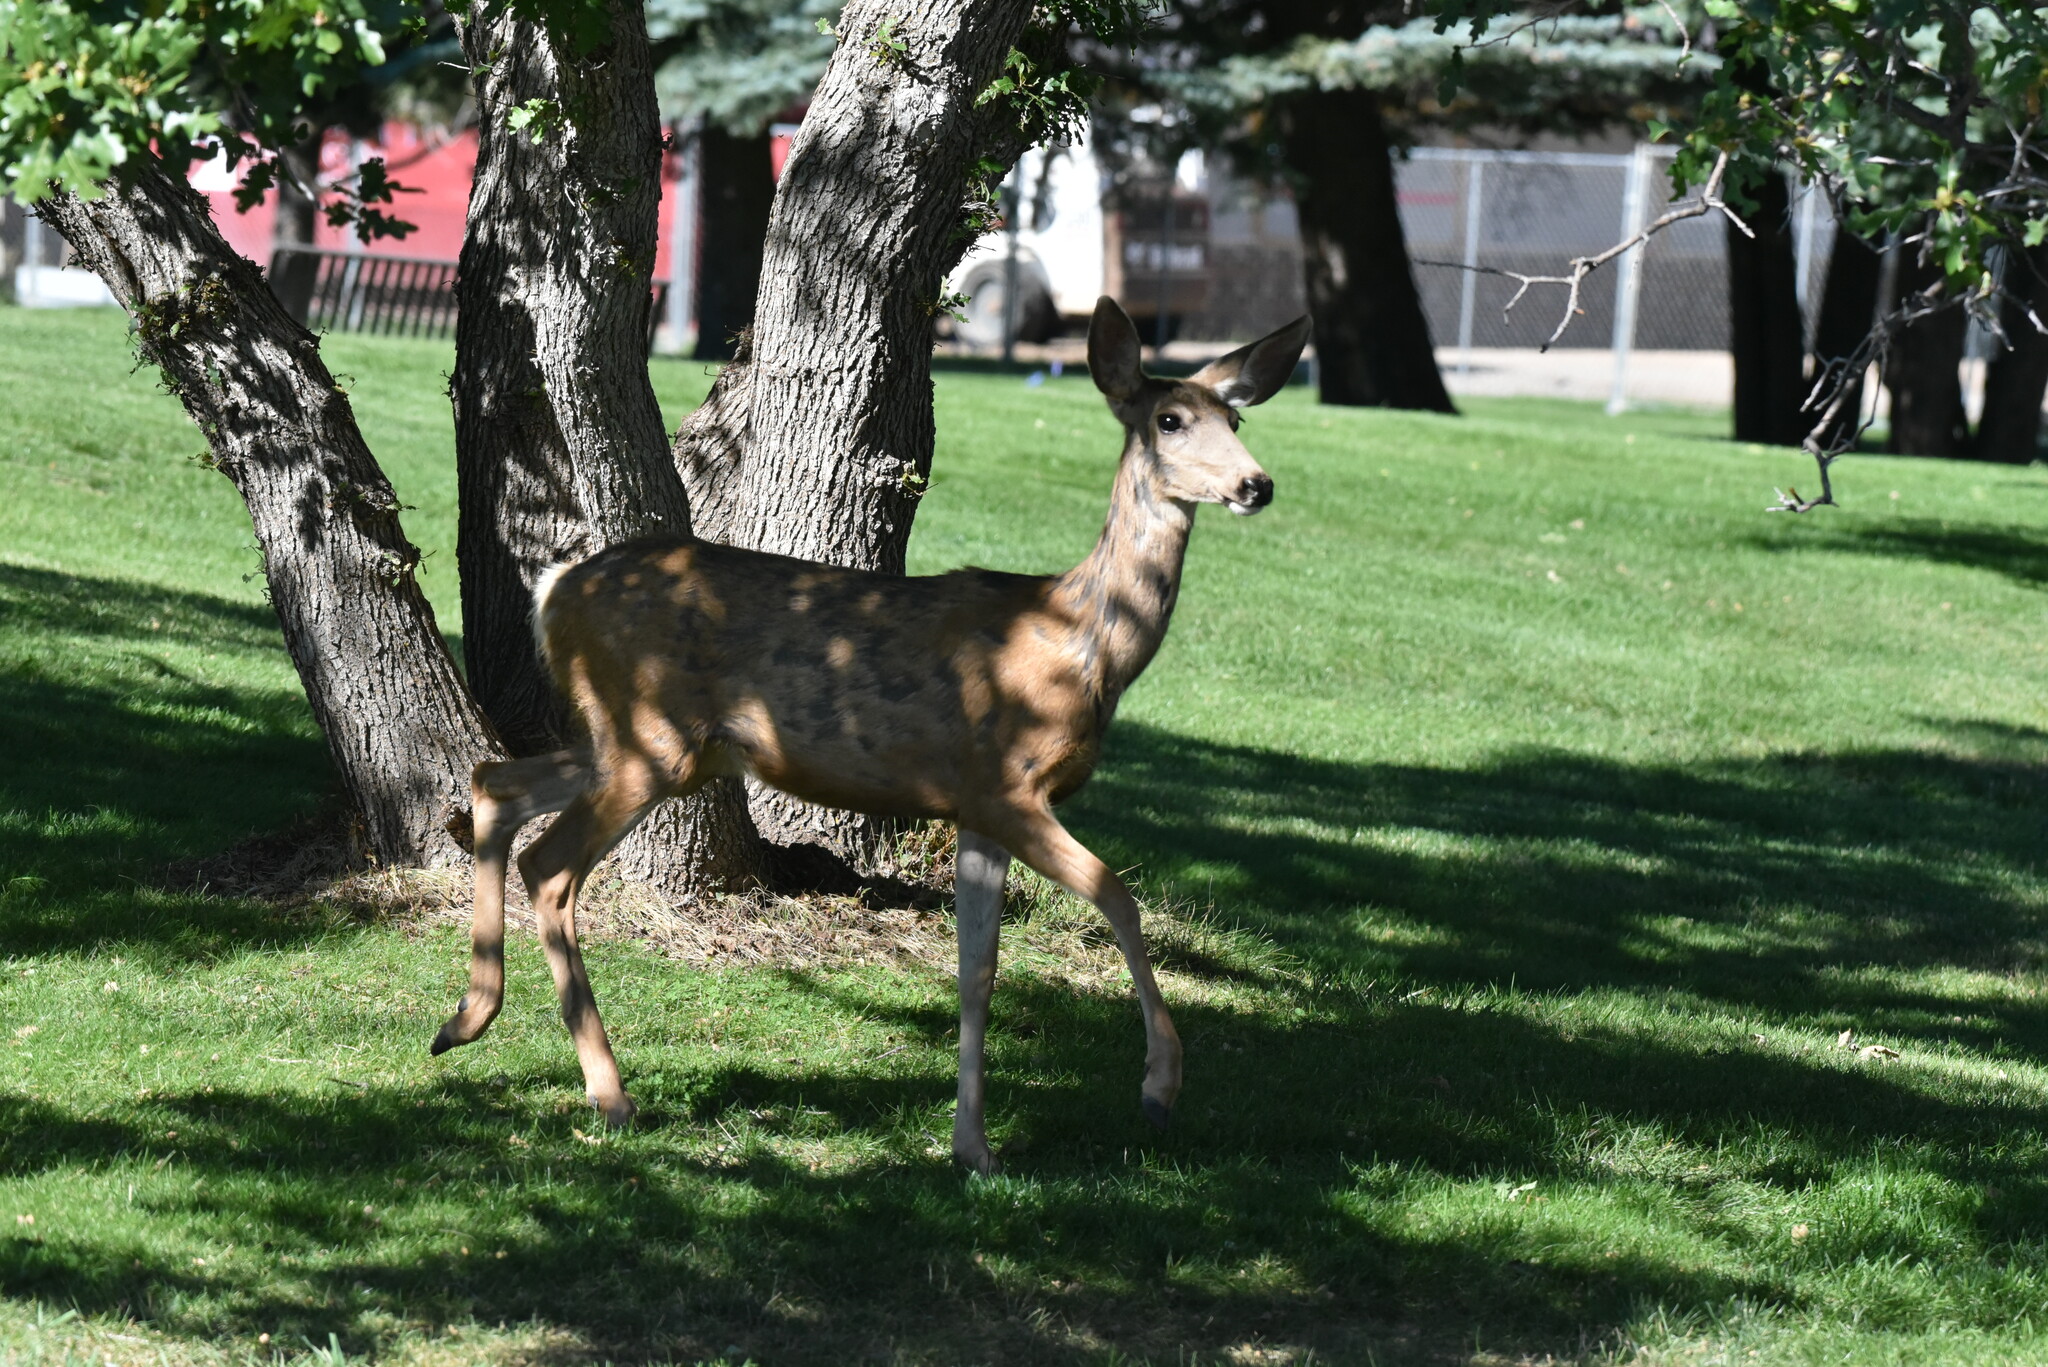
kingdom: Animalia
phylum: Chordata
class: Mammalia
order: Artiodactyla
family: Cervidae
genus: Odocoileus
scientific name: Odocoileus hemionus
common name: Mule deer
